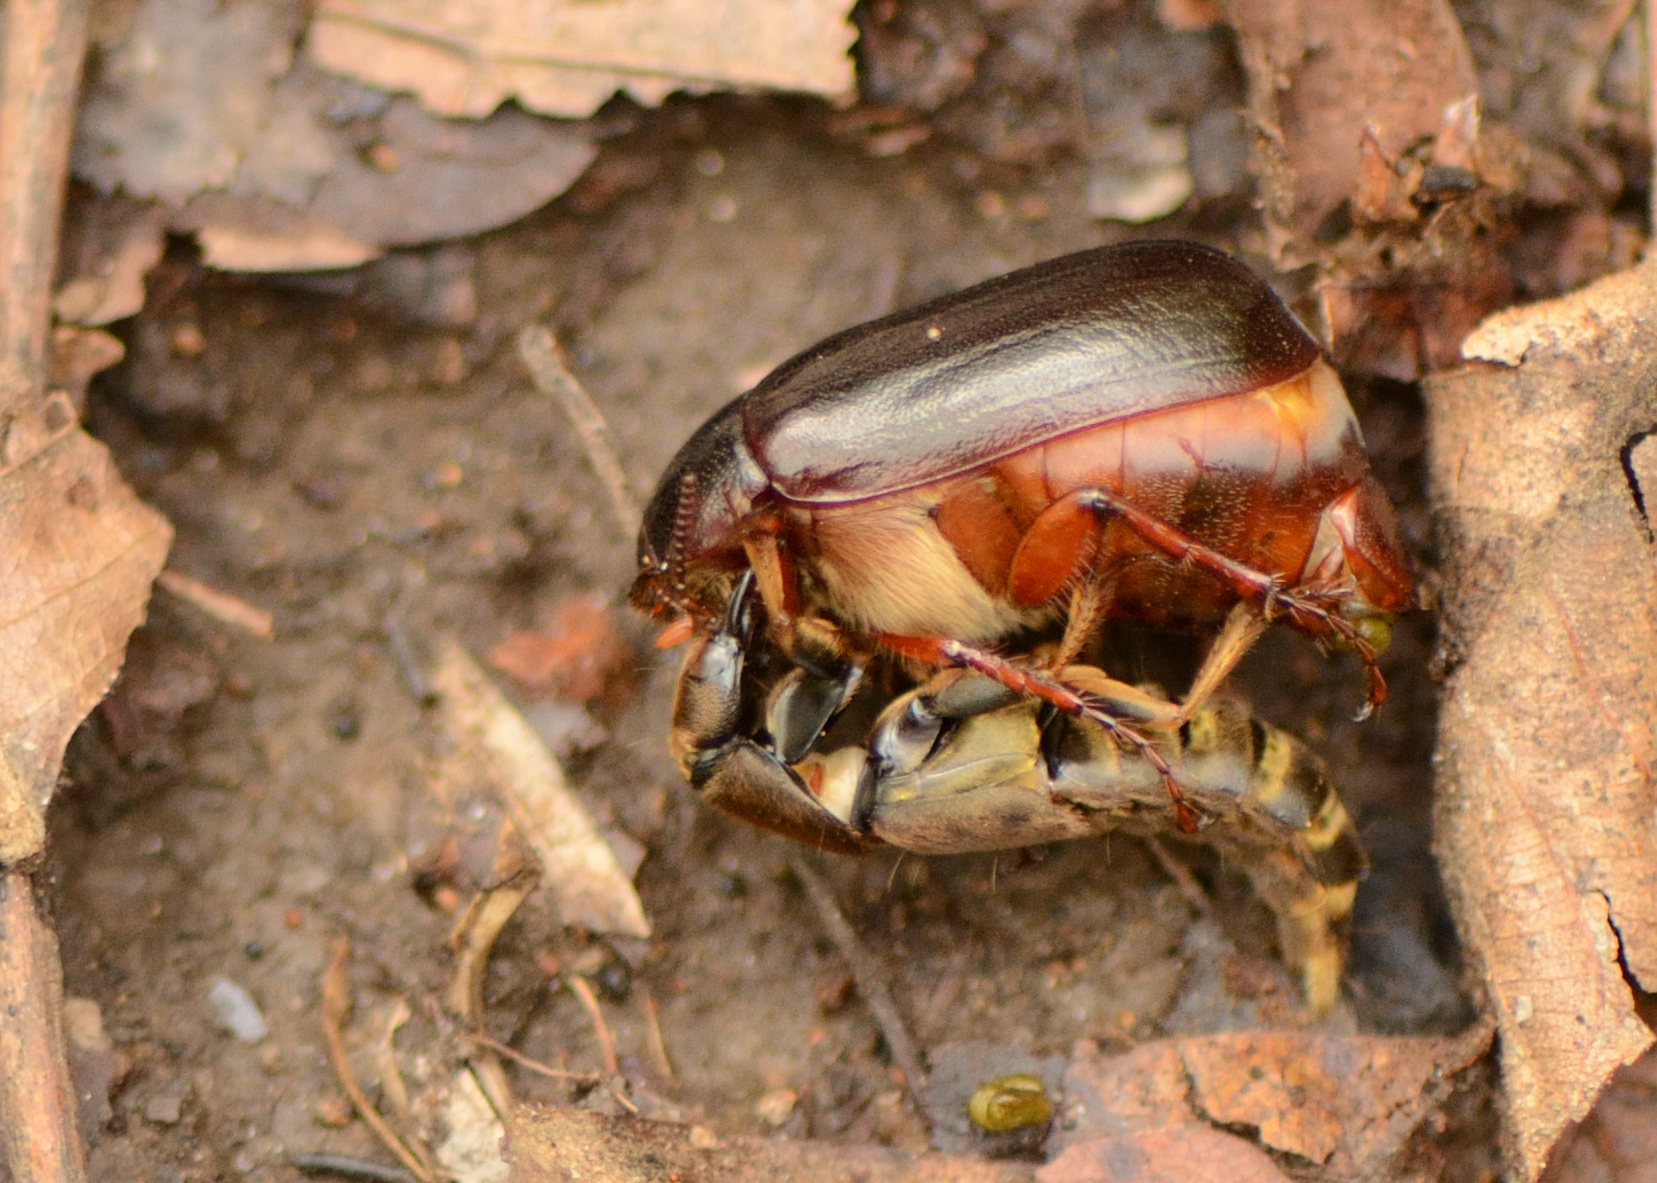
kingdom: Animalia
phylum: Arthropoda
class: Insecta
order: Coleoptera
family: Staphylinidae
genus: Platydracus
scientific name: Platydracus maculosus
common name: Brown rove beetle
